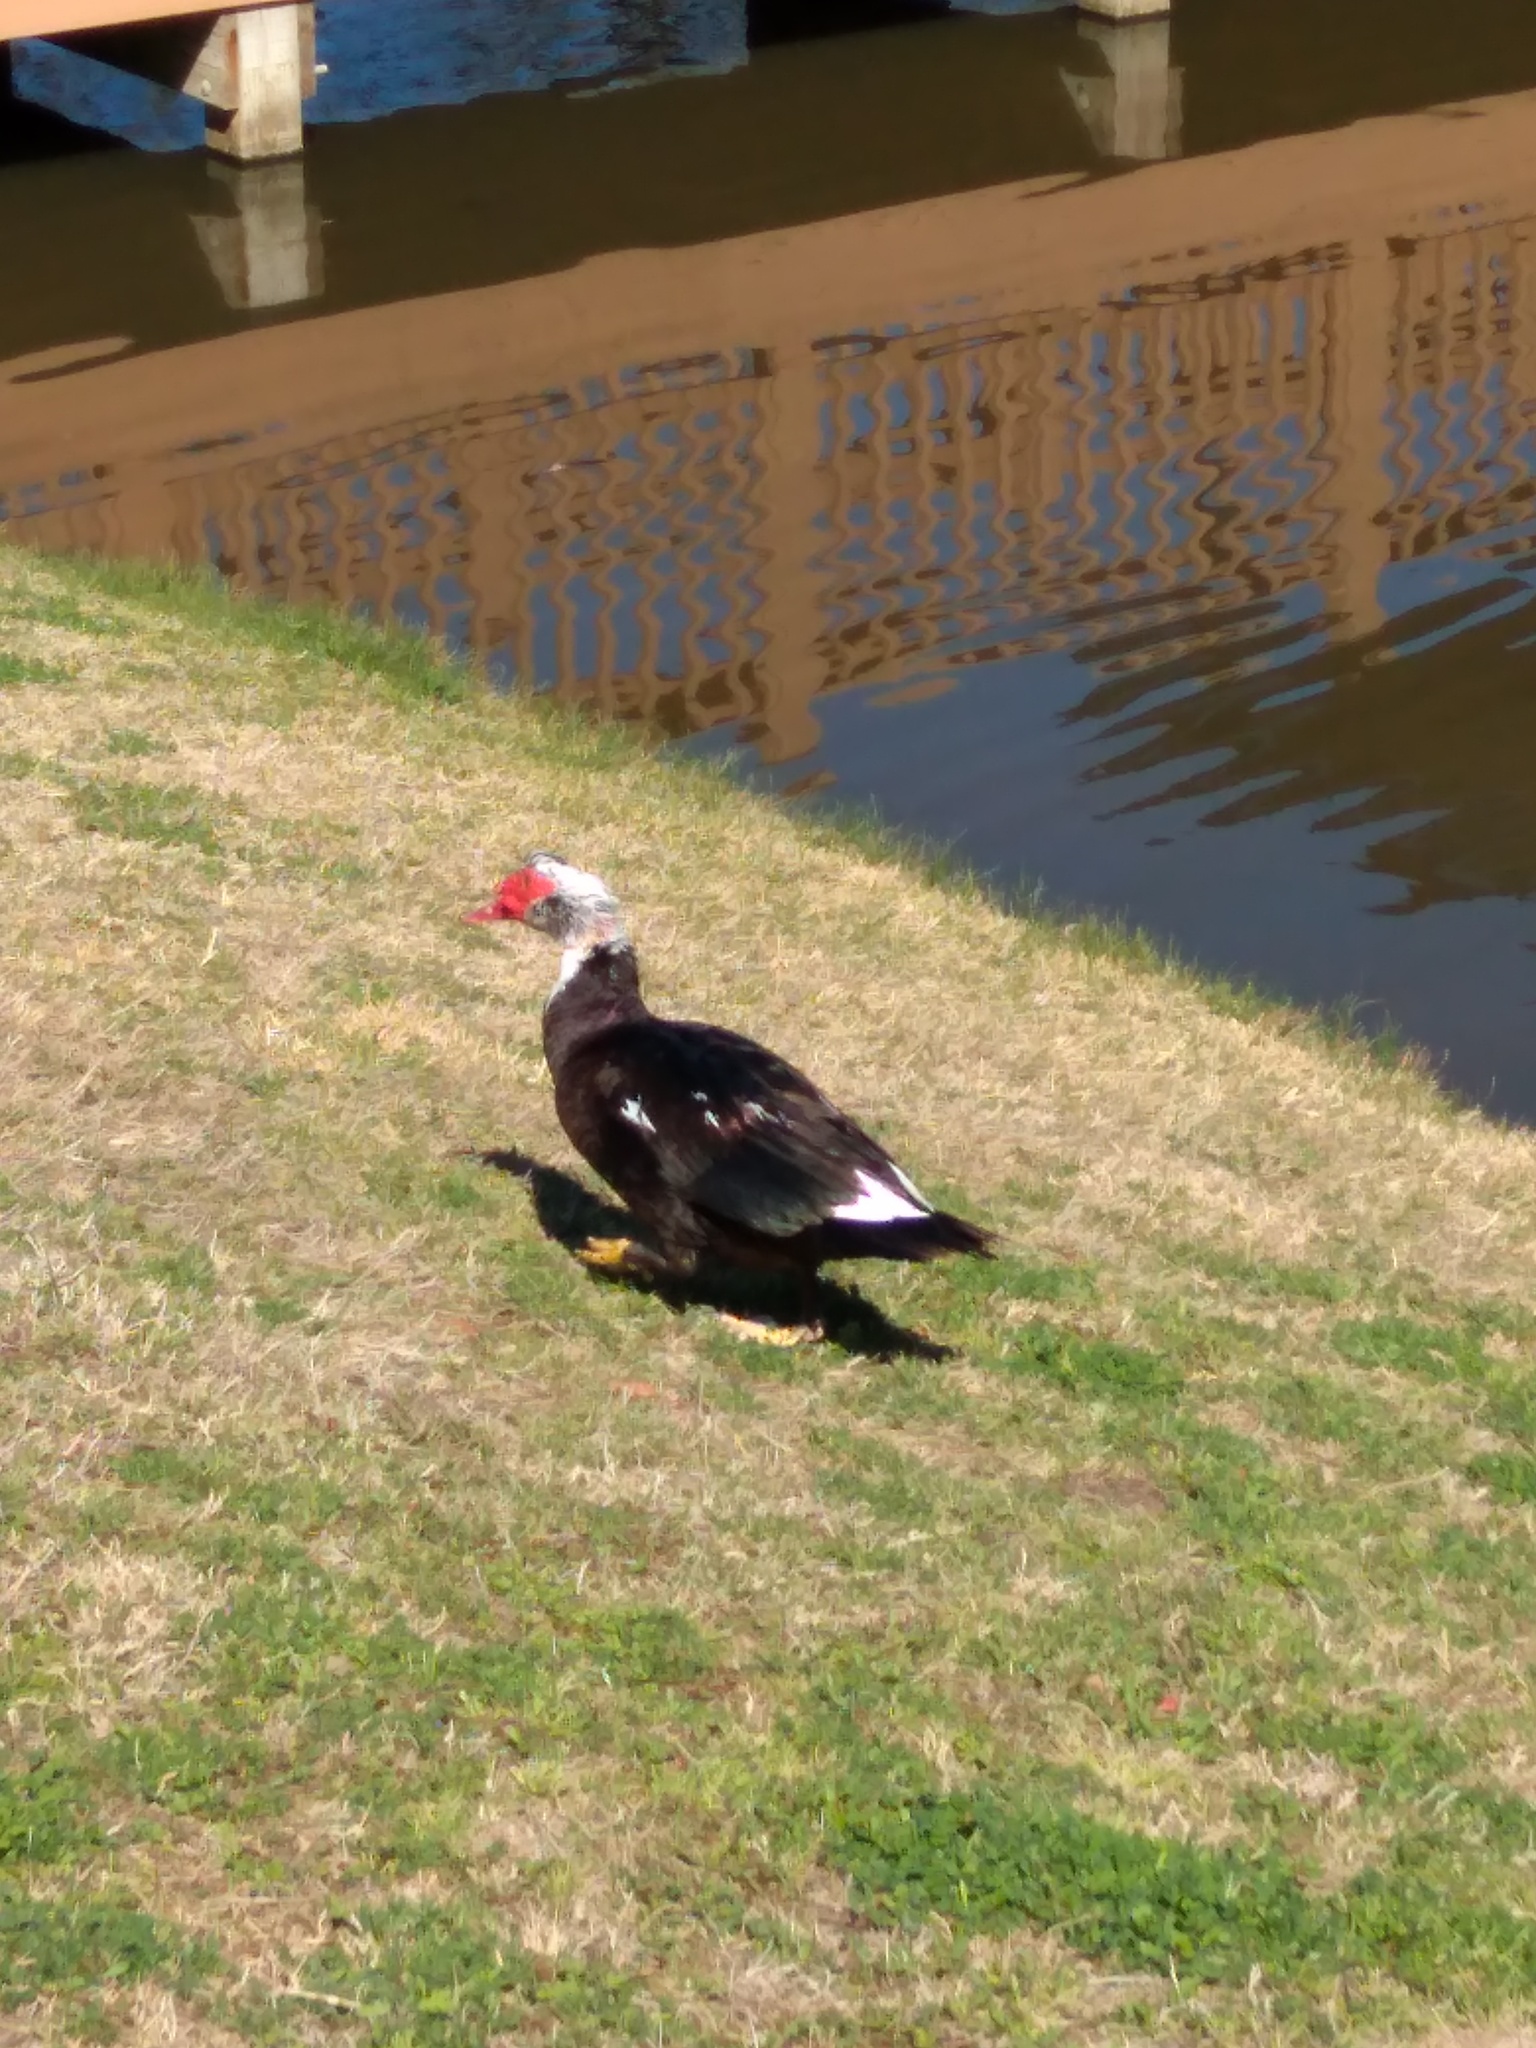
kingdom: Animalia
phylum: Chordata
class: Aves
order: Anseriformes
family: Anatidae
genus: Cairina
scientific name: Cairina moschata
